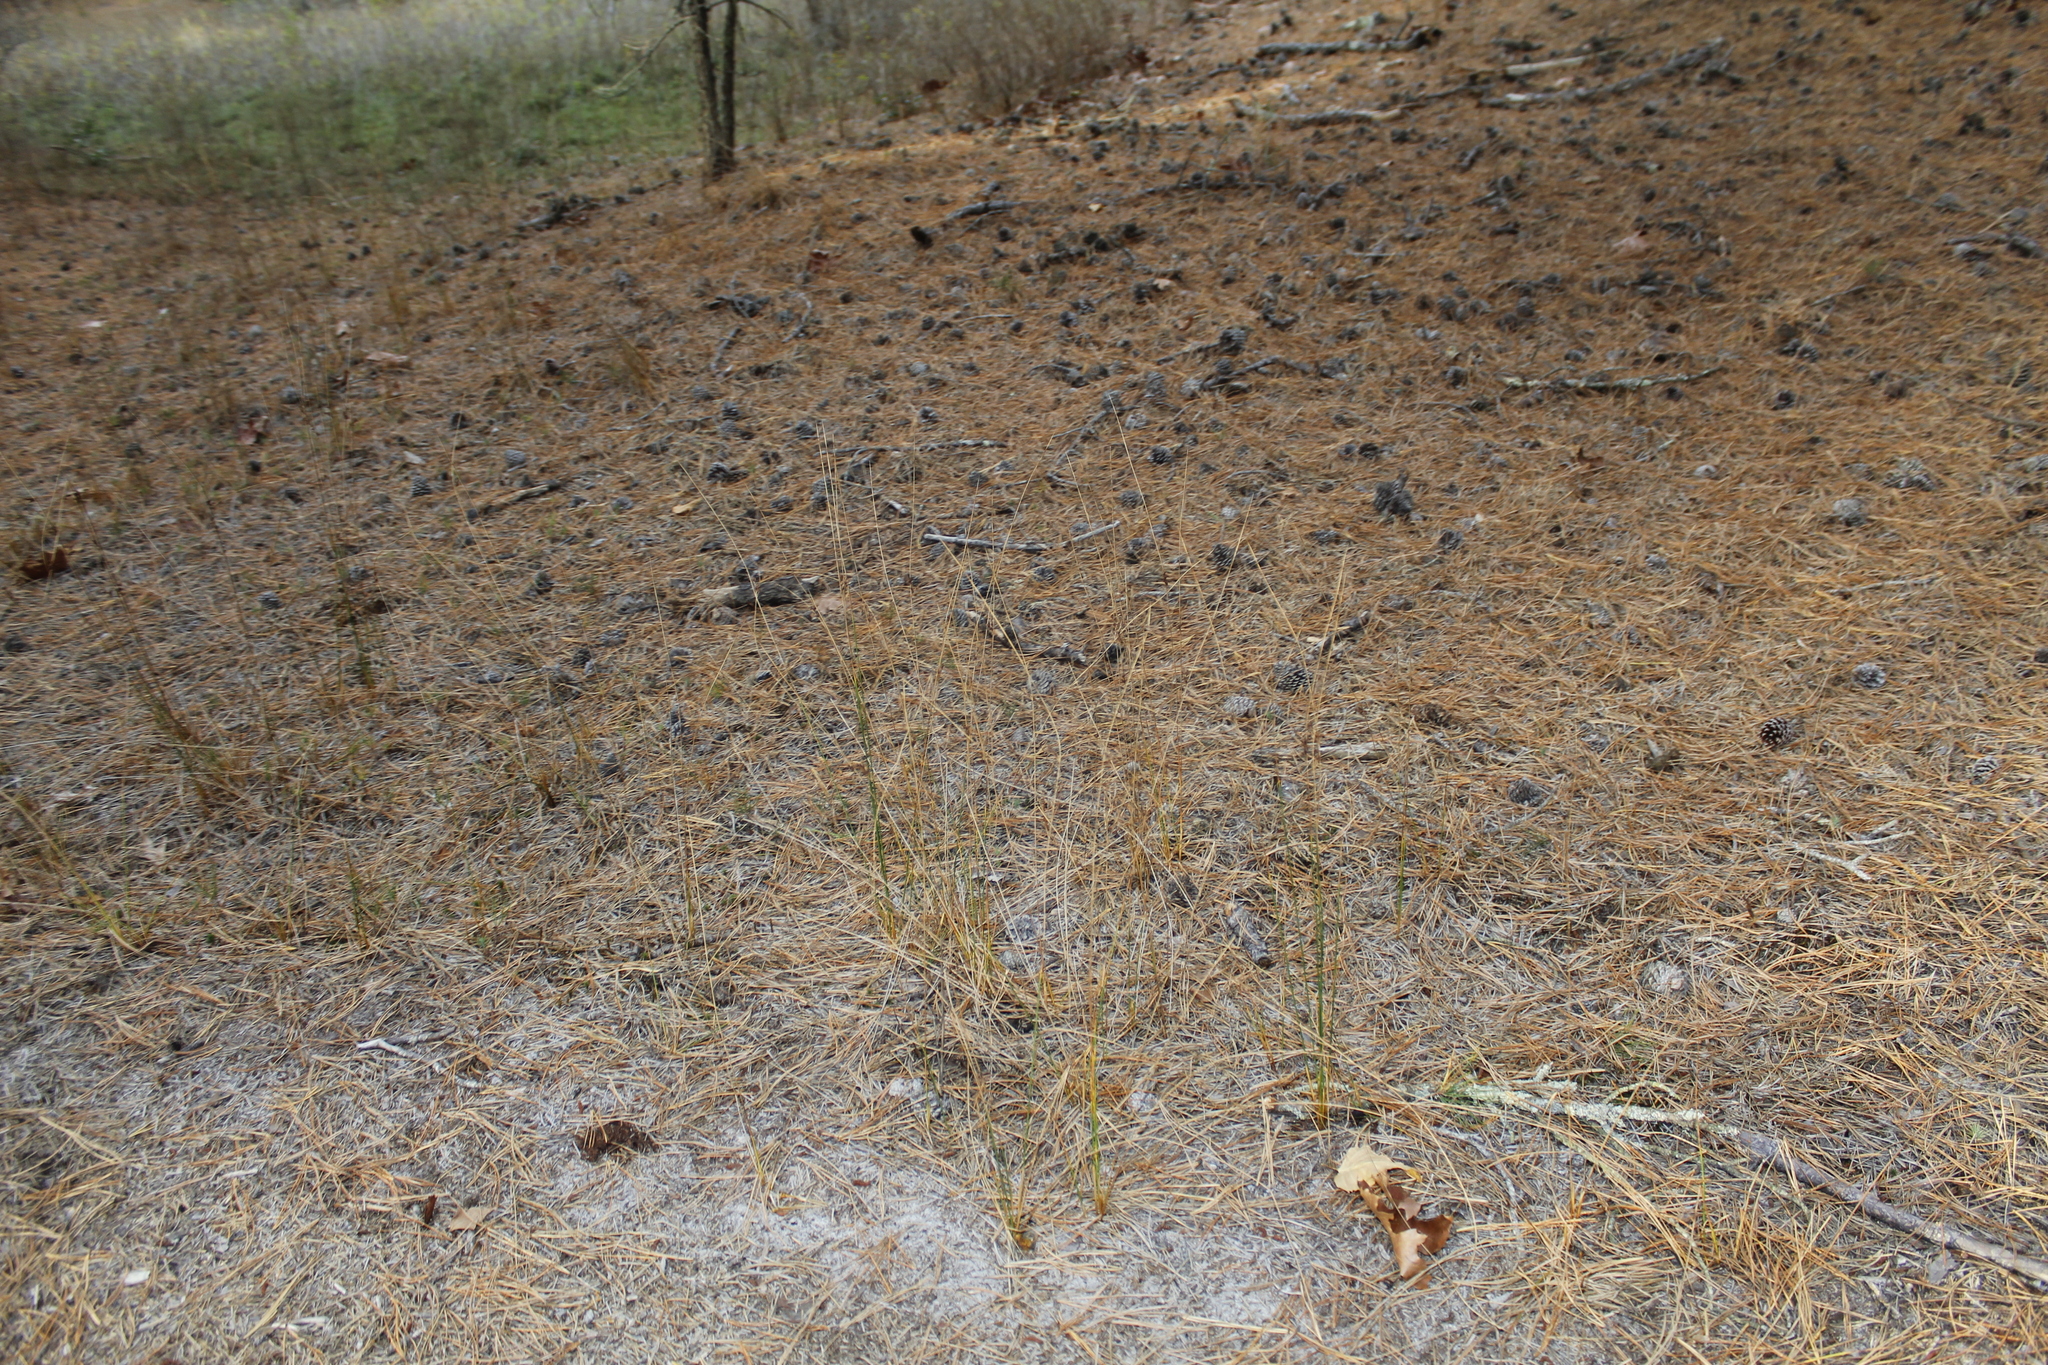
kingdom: Plantae
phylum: Tracheophyta
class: Liliopsida
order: Poales
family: Juncaceae
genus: Juncus
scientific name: Juncus greenei
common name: Greene's rush
